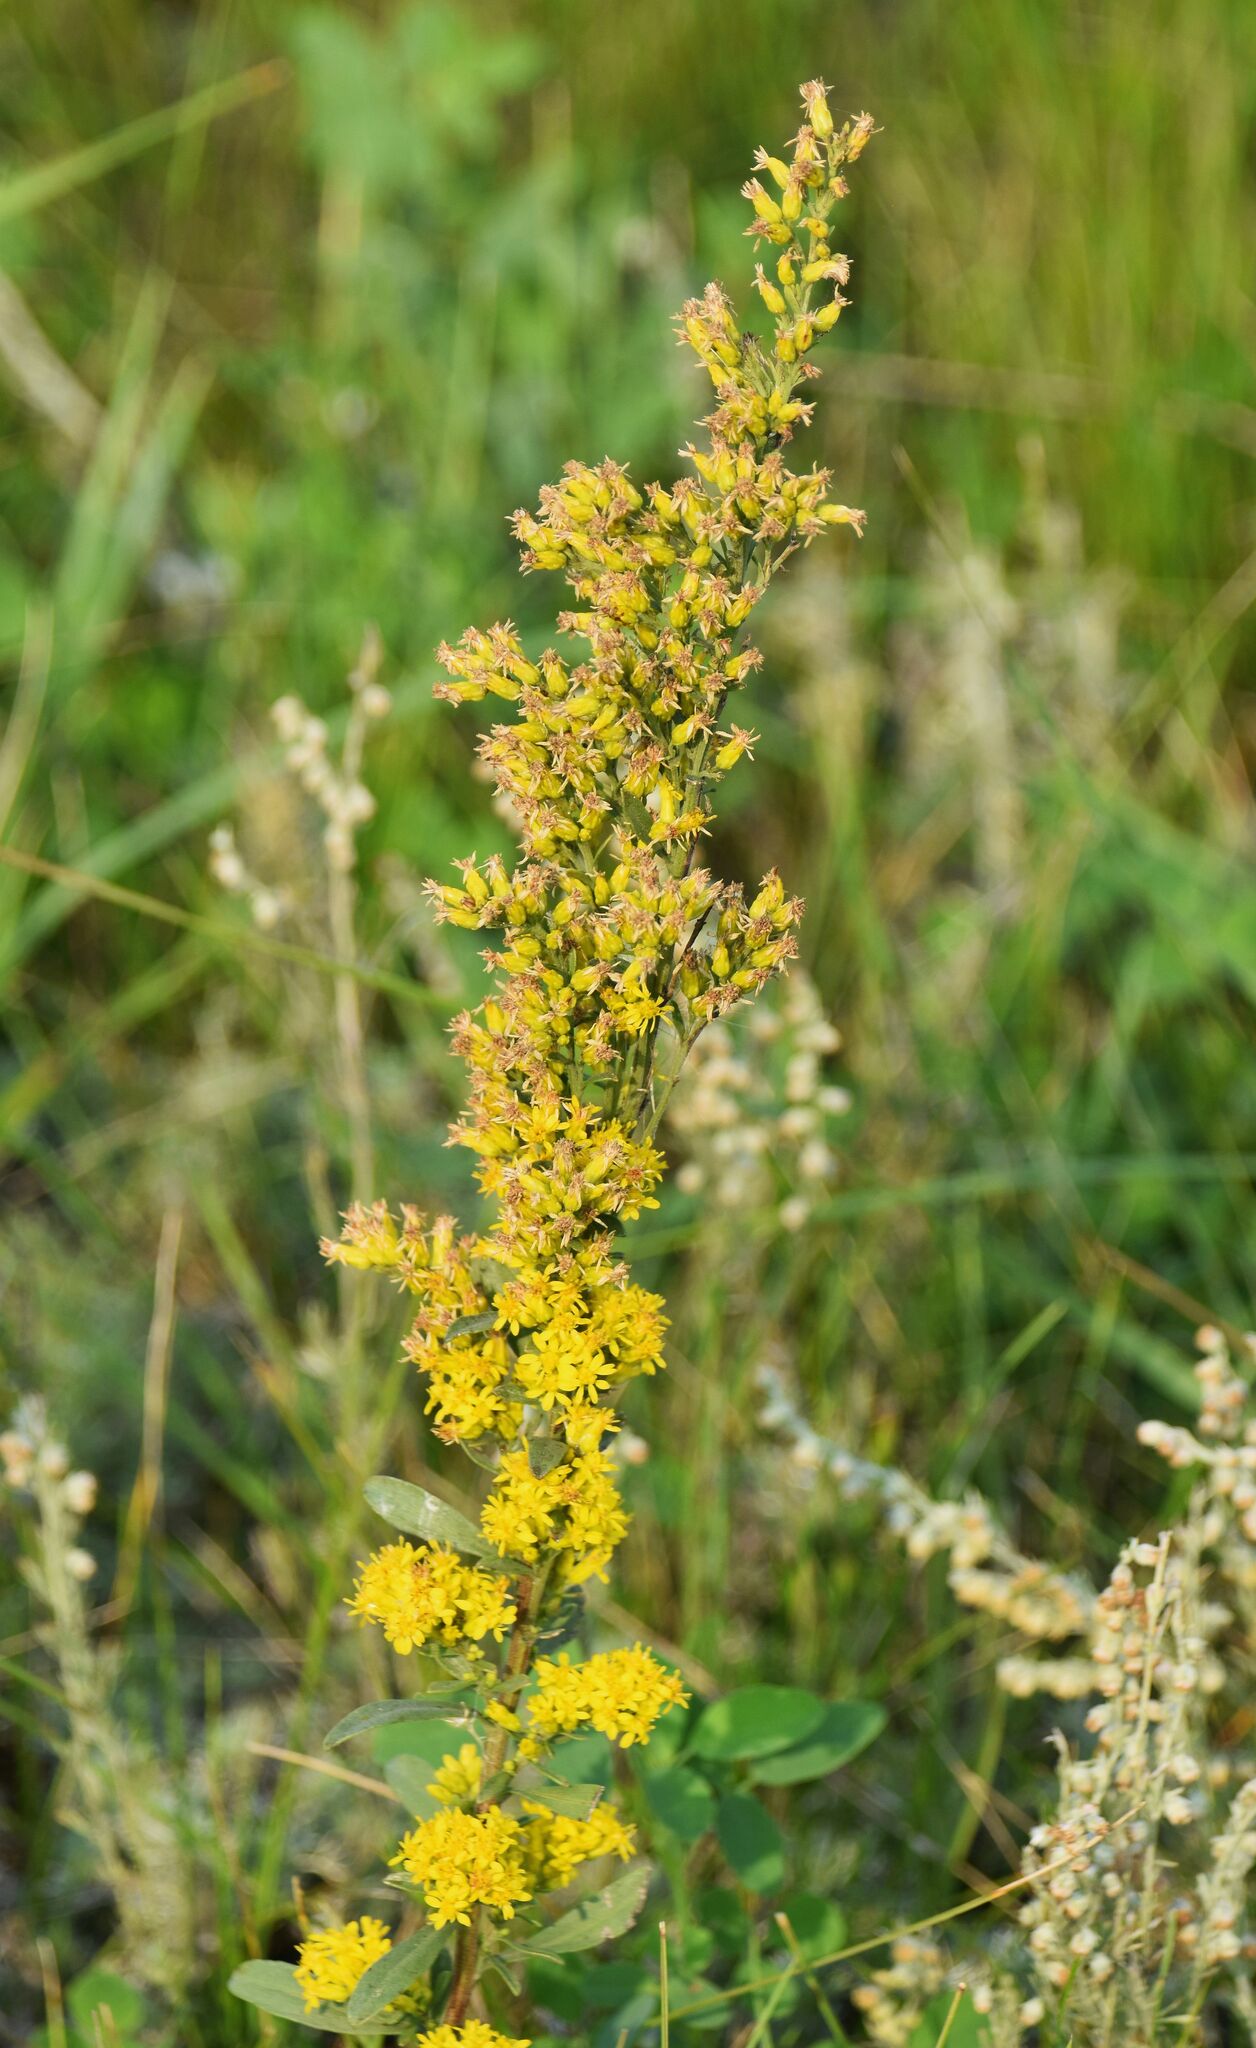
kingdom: Plantae
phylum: Tracheophyta
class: Magnoliopsida
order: Asterales
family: Asteraceae
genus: Solidago
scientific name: Solidago missouriensis
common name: Prairie goldenrod
